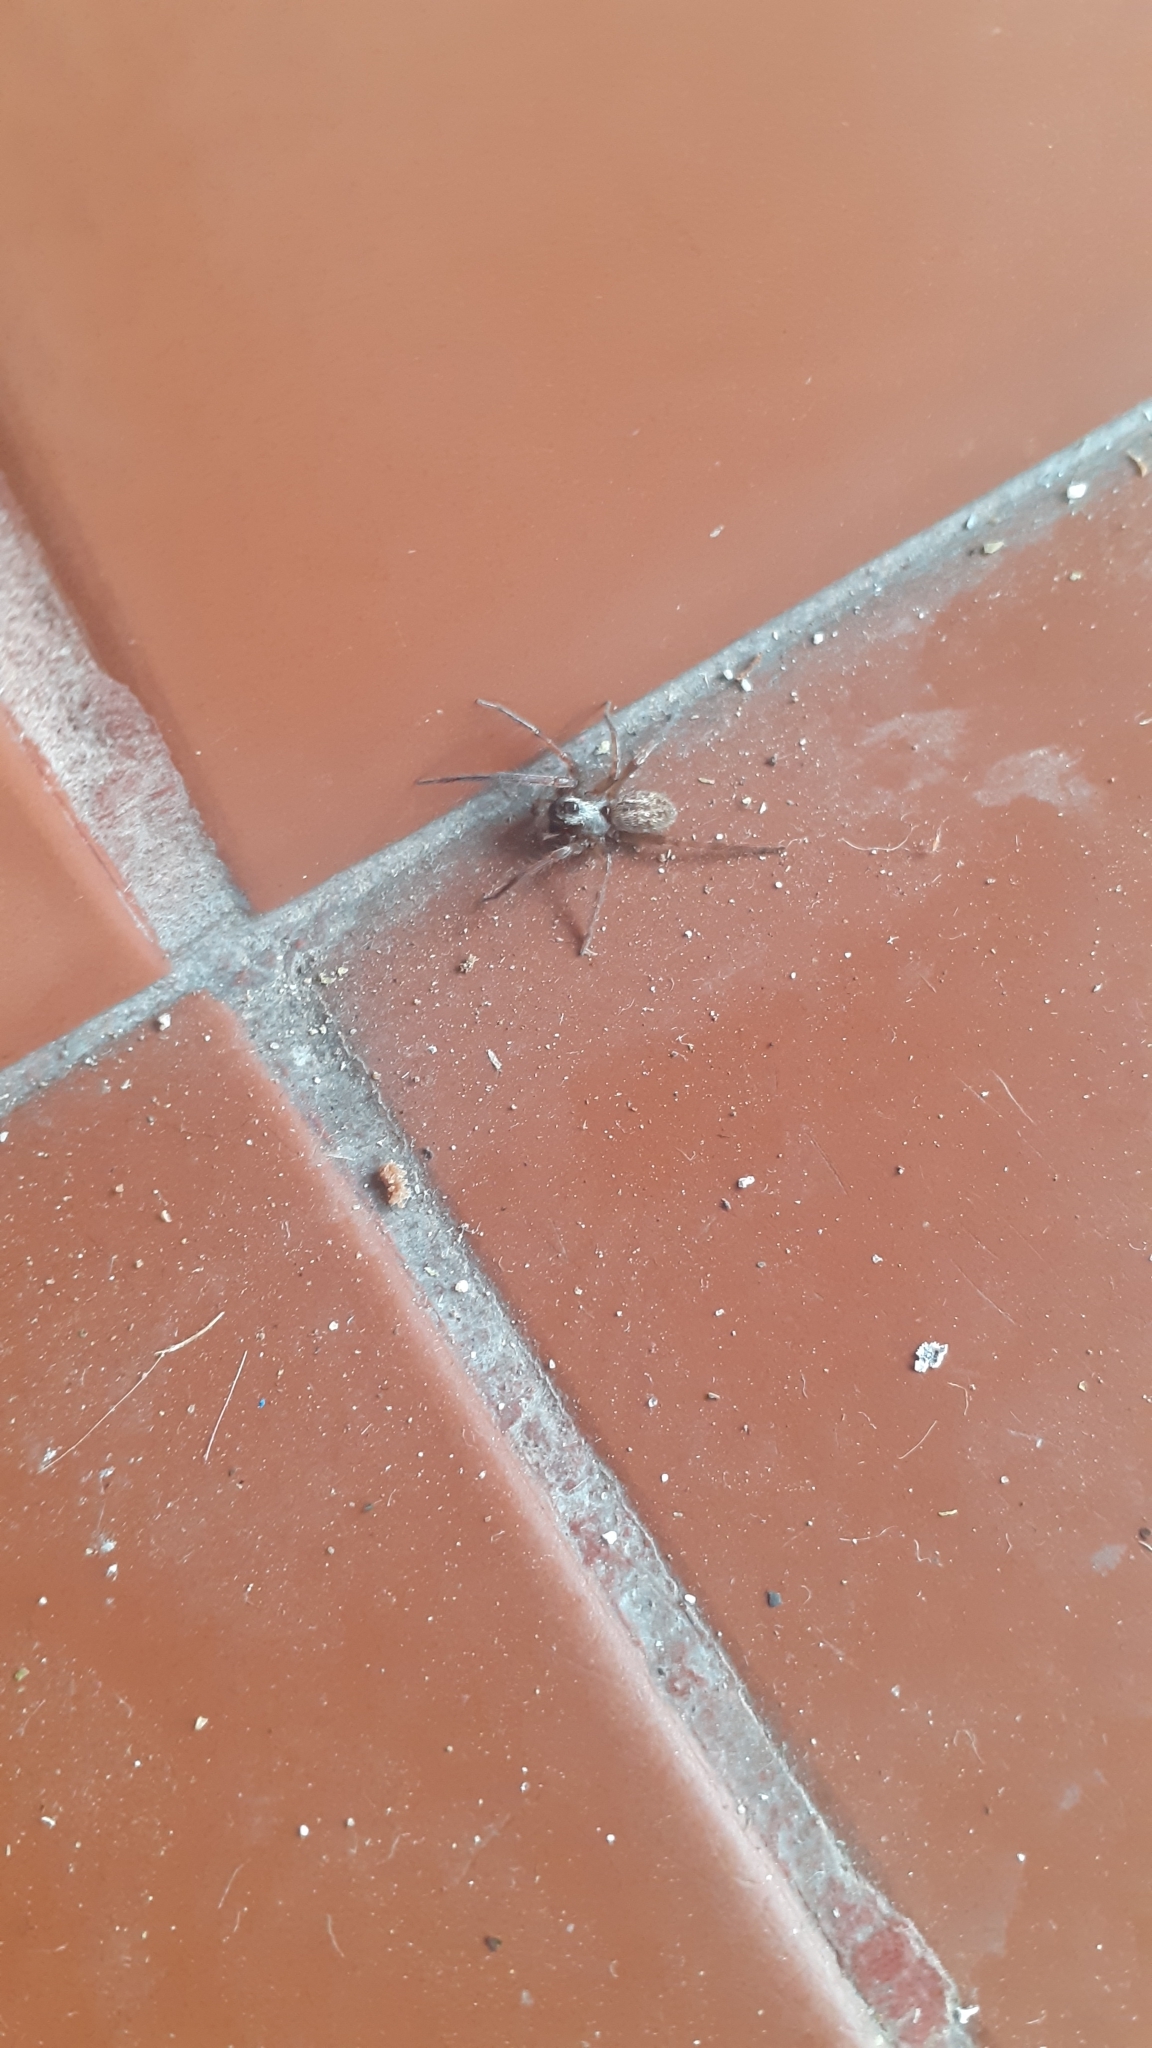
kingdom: Animalia
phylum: Arthropoda
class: Arachnida
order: Araneae
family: Desidae
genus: Badumna
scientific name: Badumna longinqua
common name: Gray house spider
